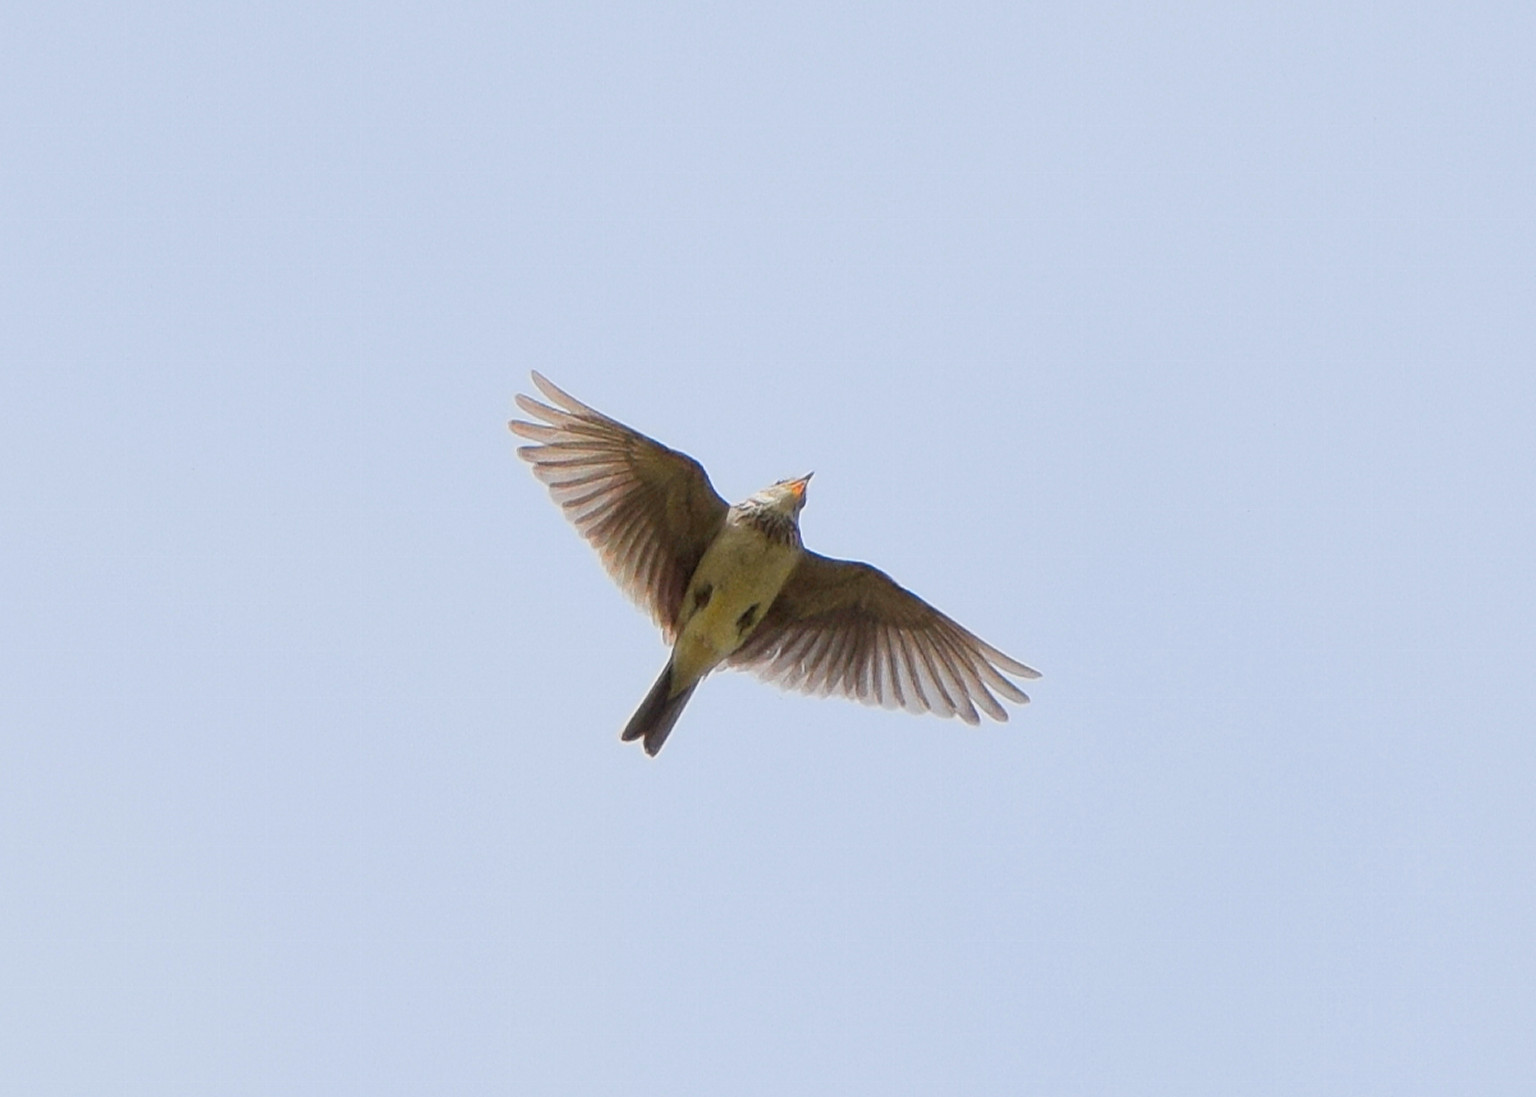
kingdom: Animalia
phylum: Chordata
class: Aves
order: Passeriformes
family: Alaudidae
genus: Alauda
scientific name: Alauda arvensis
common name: Eurasian skylark
